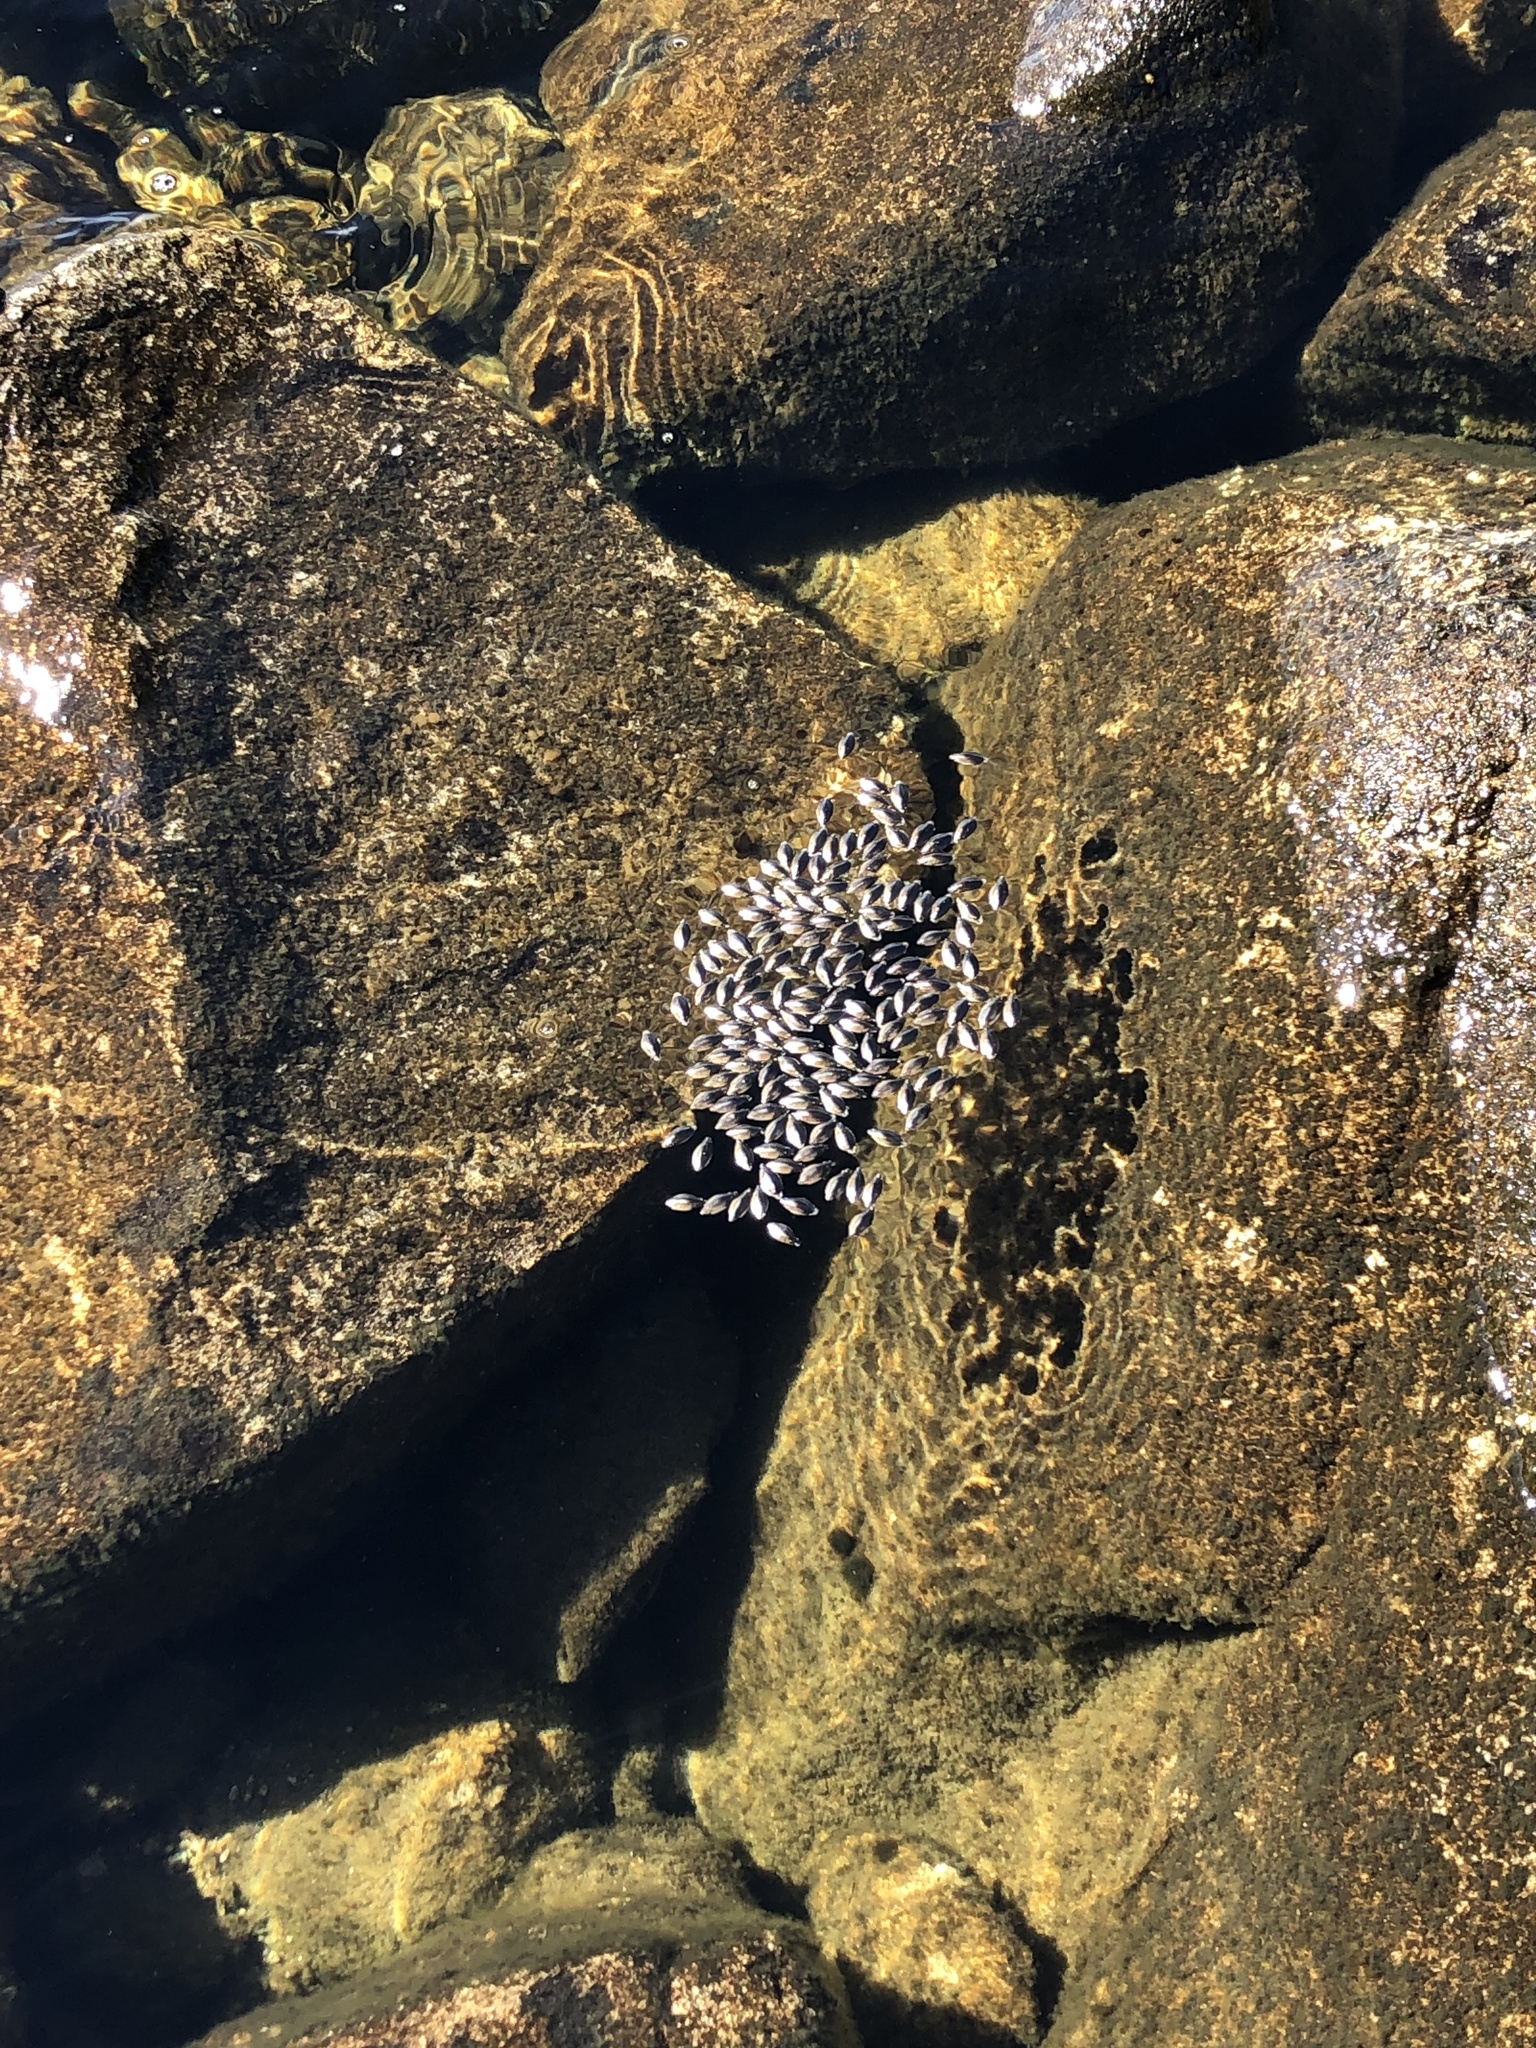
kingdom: Animalia
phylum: Arthropoda
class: Insecta
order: Coleoptera
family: Gyrinidae
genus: Dineutus
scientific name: Dineutus
